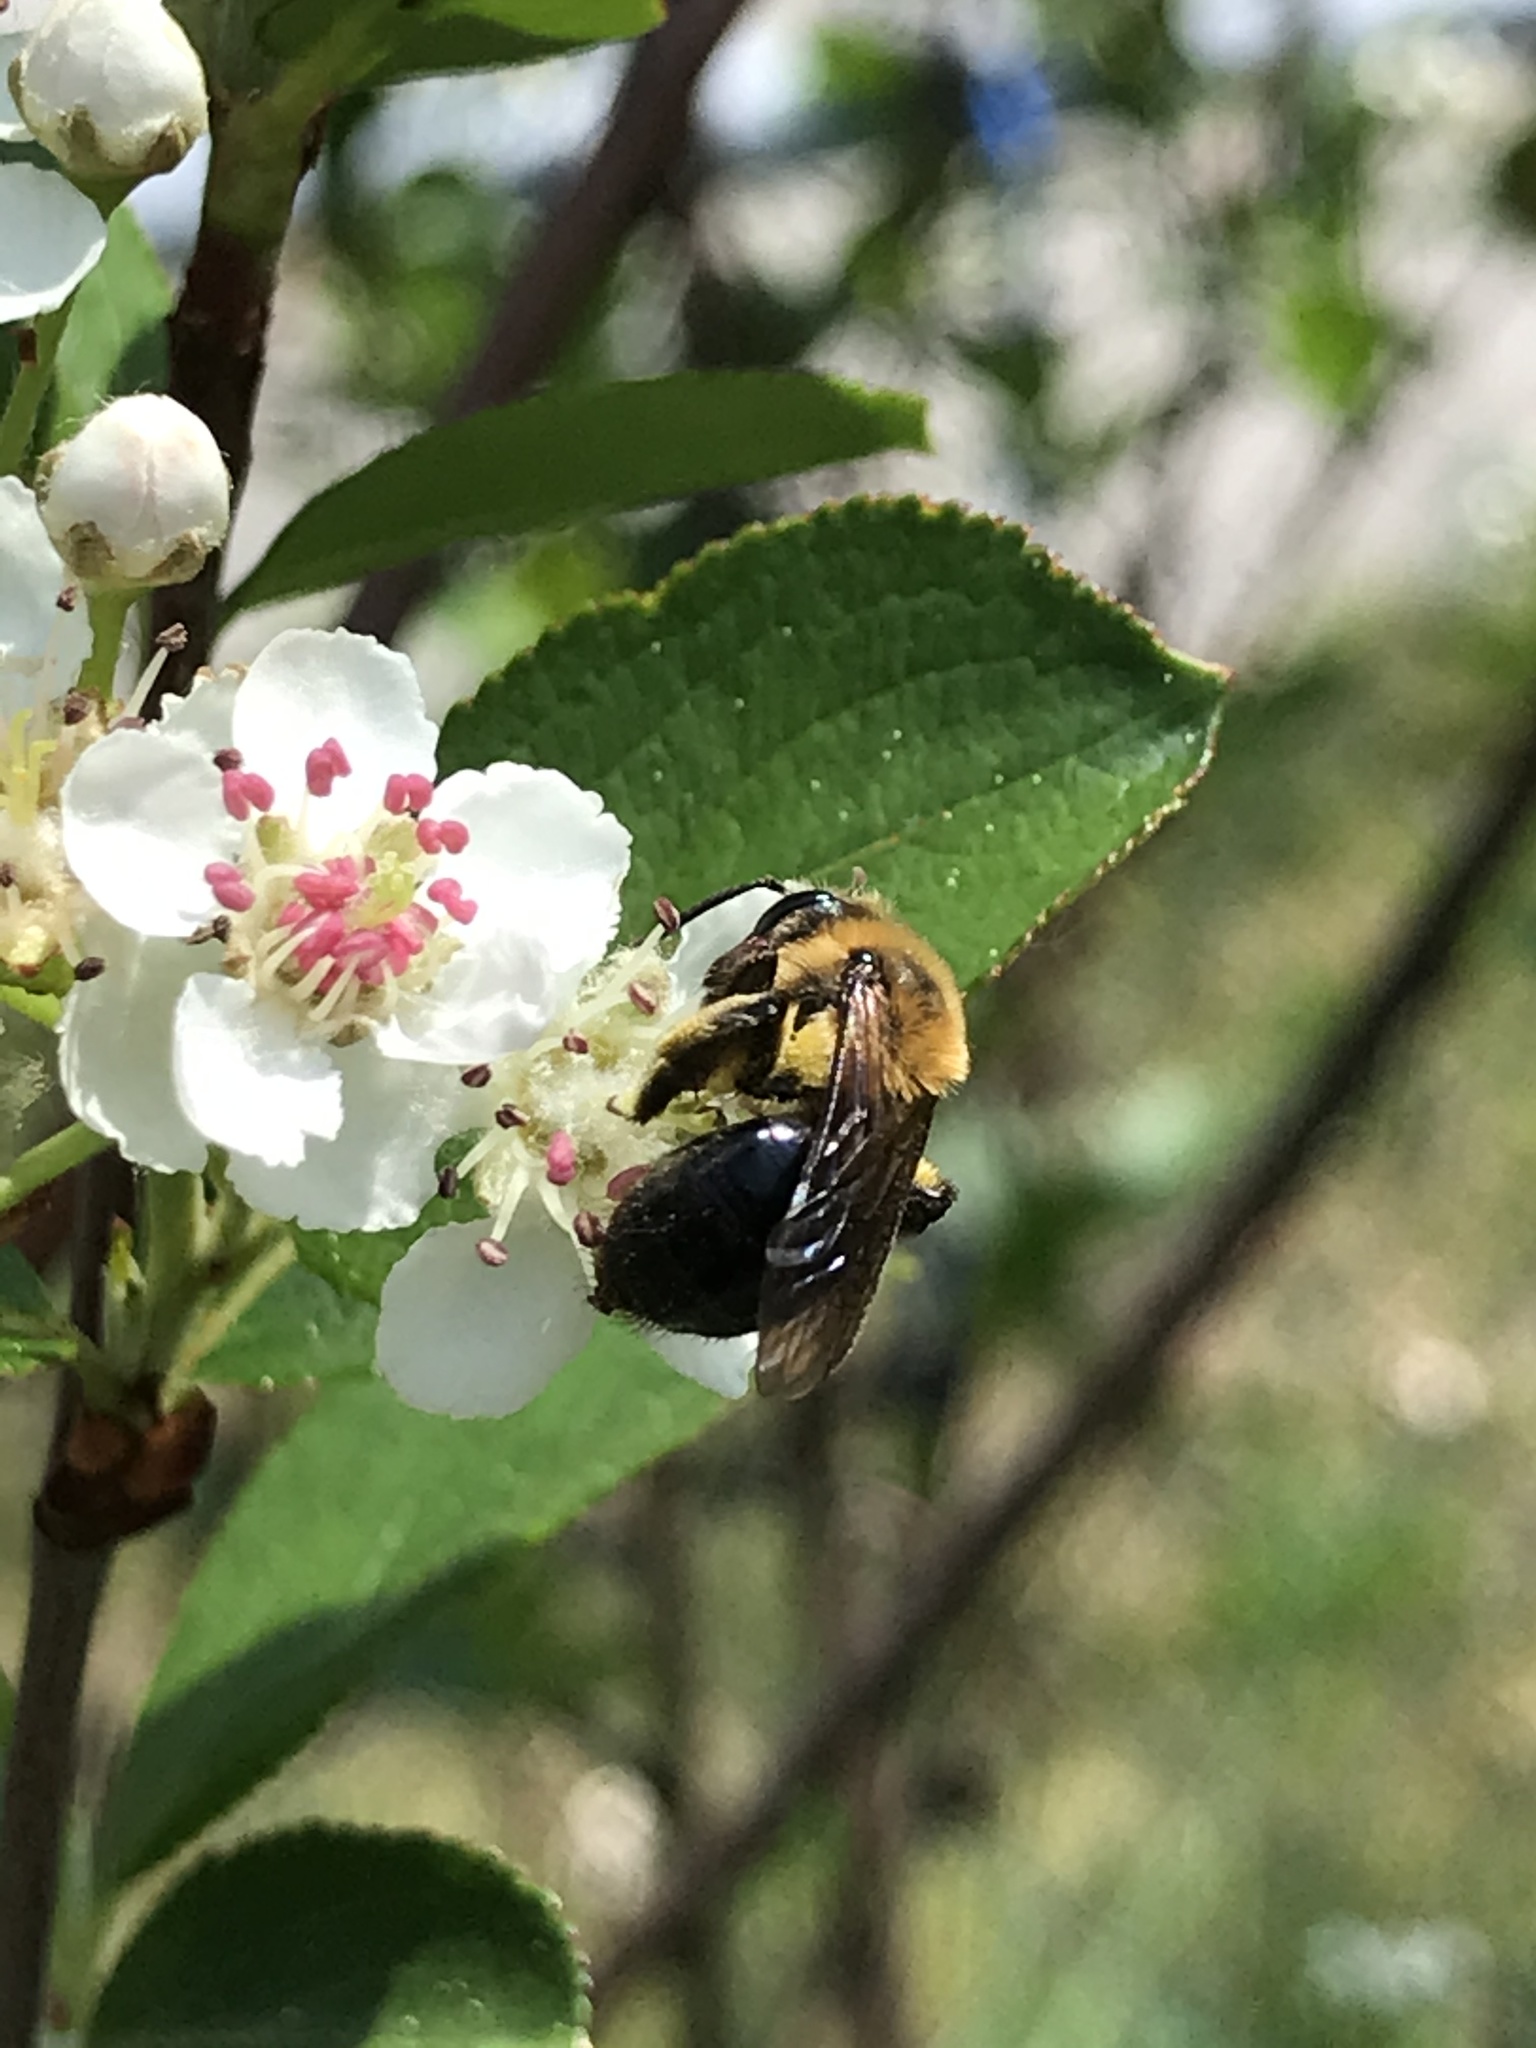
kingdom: Animalia
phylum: Arthropoda
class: Insecta
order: Hymenoptera
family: Andrenidae
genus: Andrena
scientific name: Andrena dunningi
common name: Dunning's miner
